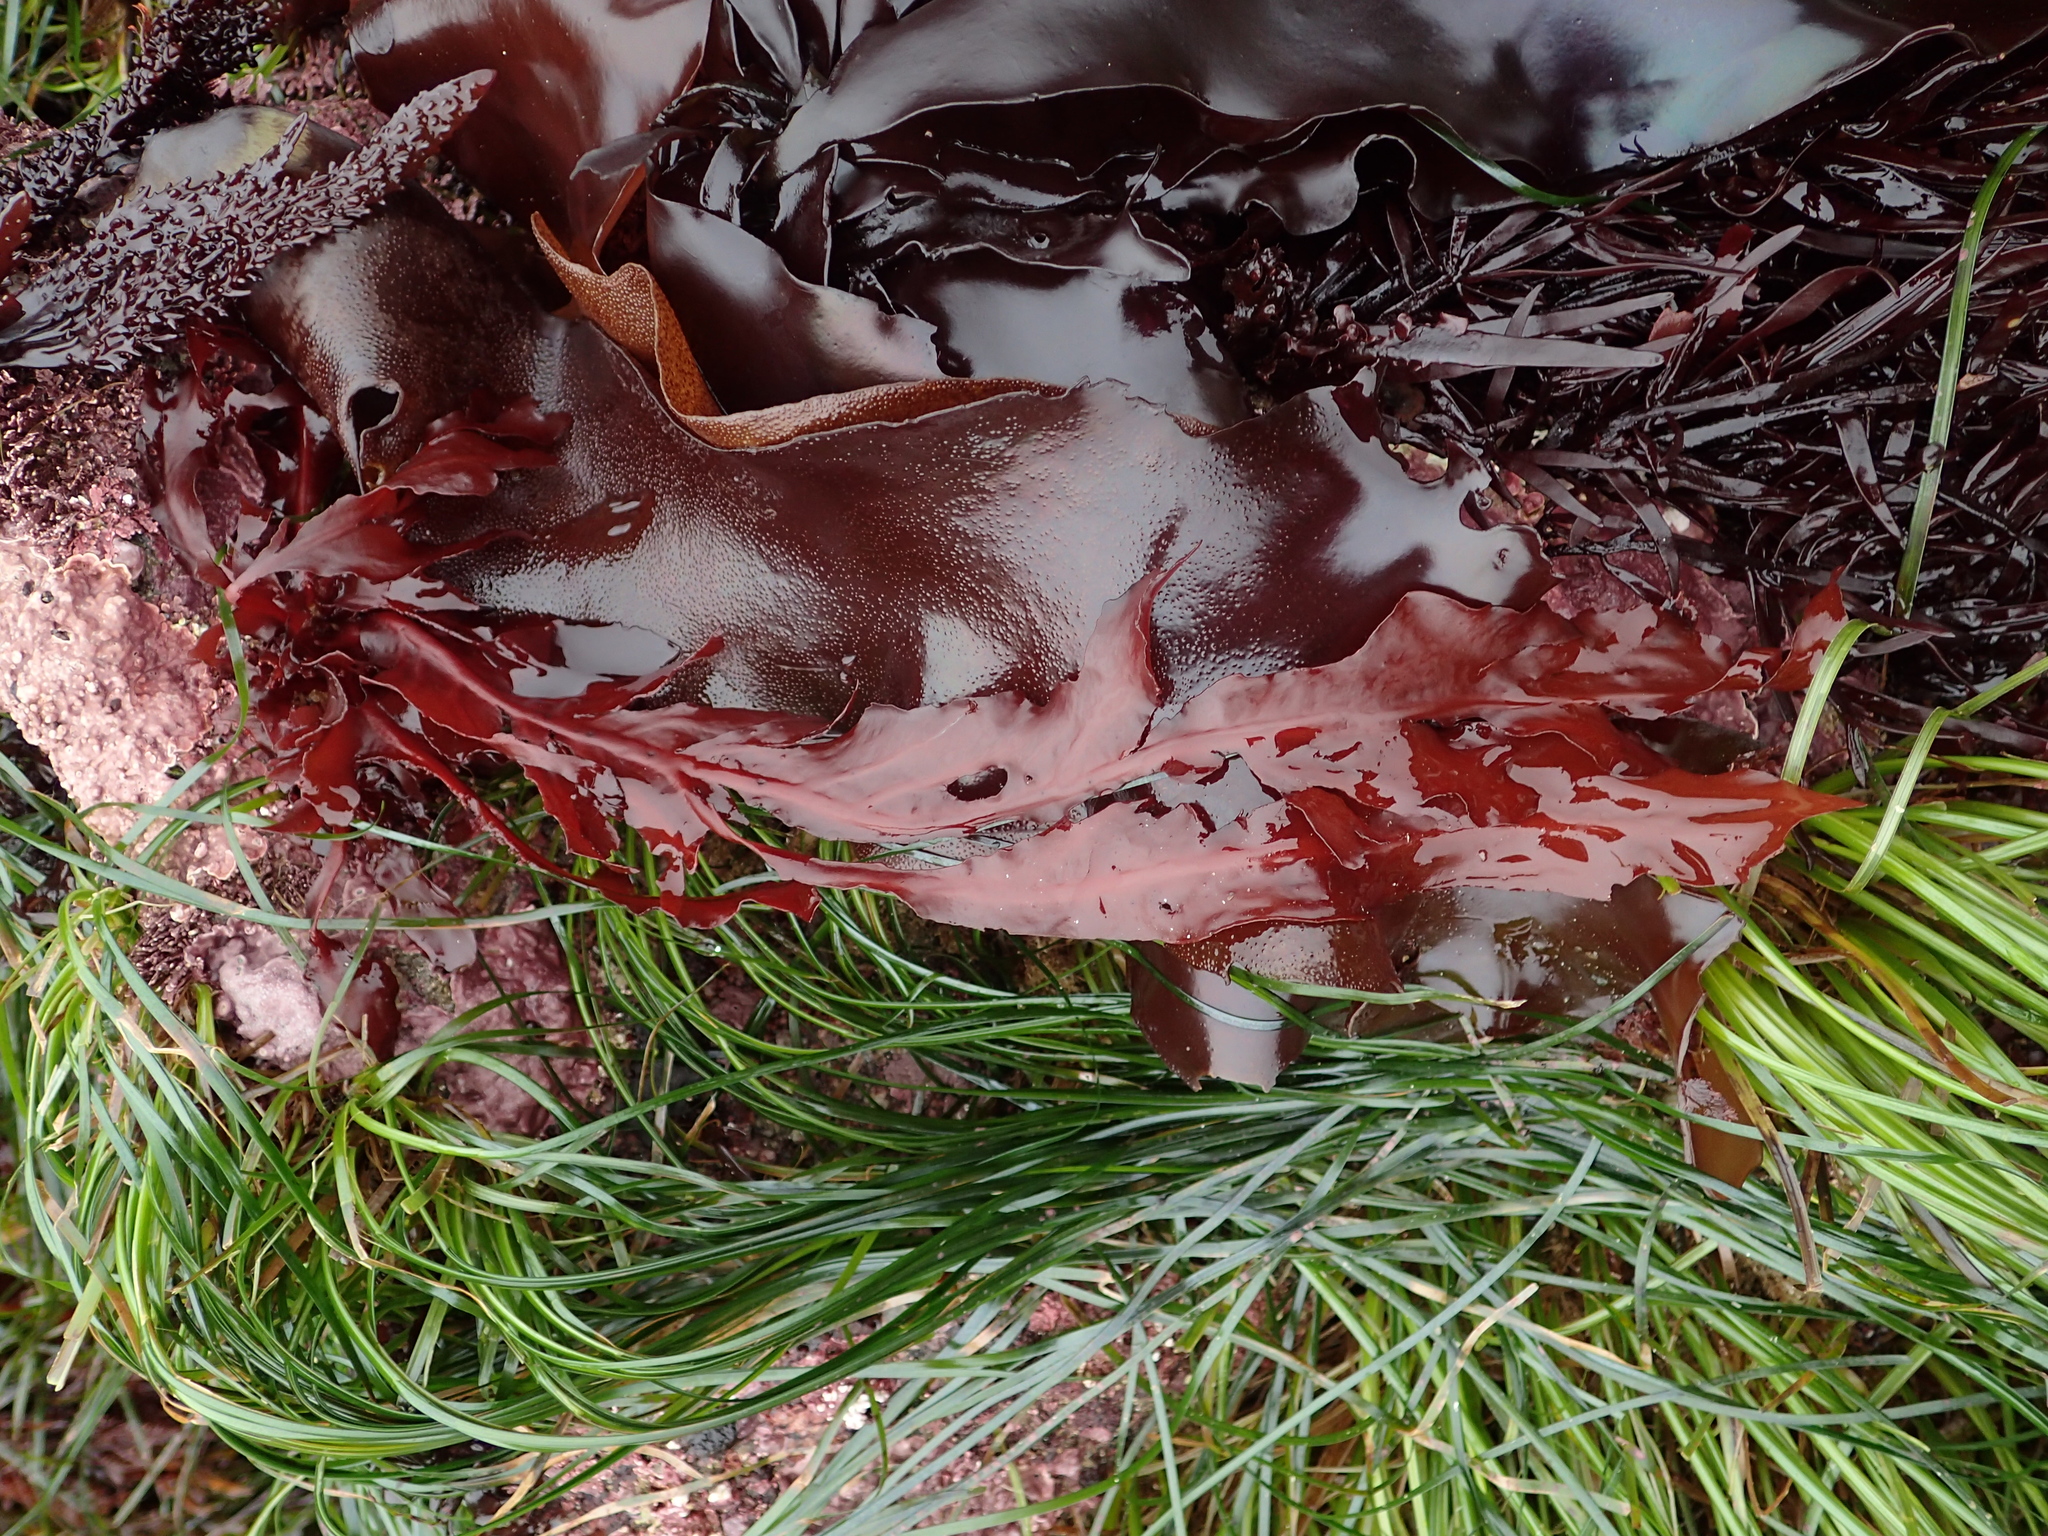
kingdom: Plantae
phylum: Rhodophyta
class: Florideophyceae
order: Gigartinales
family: Kallymeniaceae
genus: Erythrophyllum
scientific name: Erythrophyllum delesserioides
